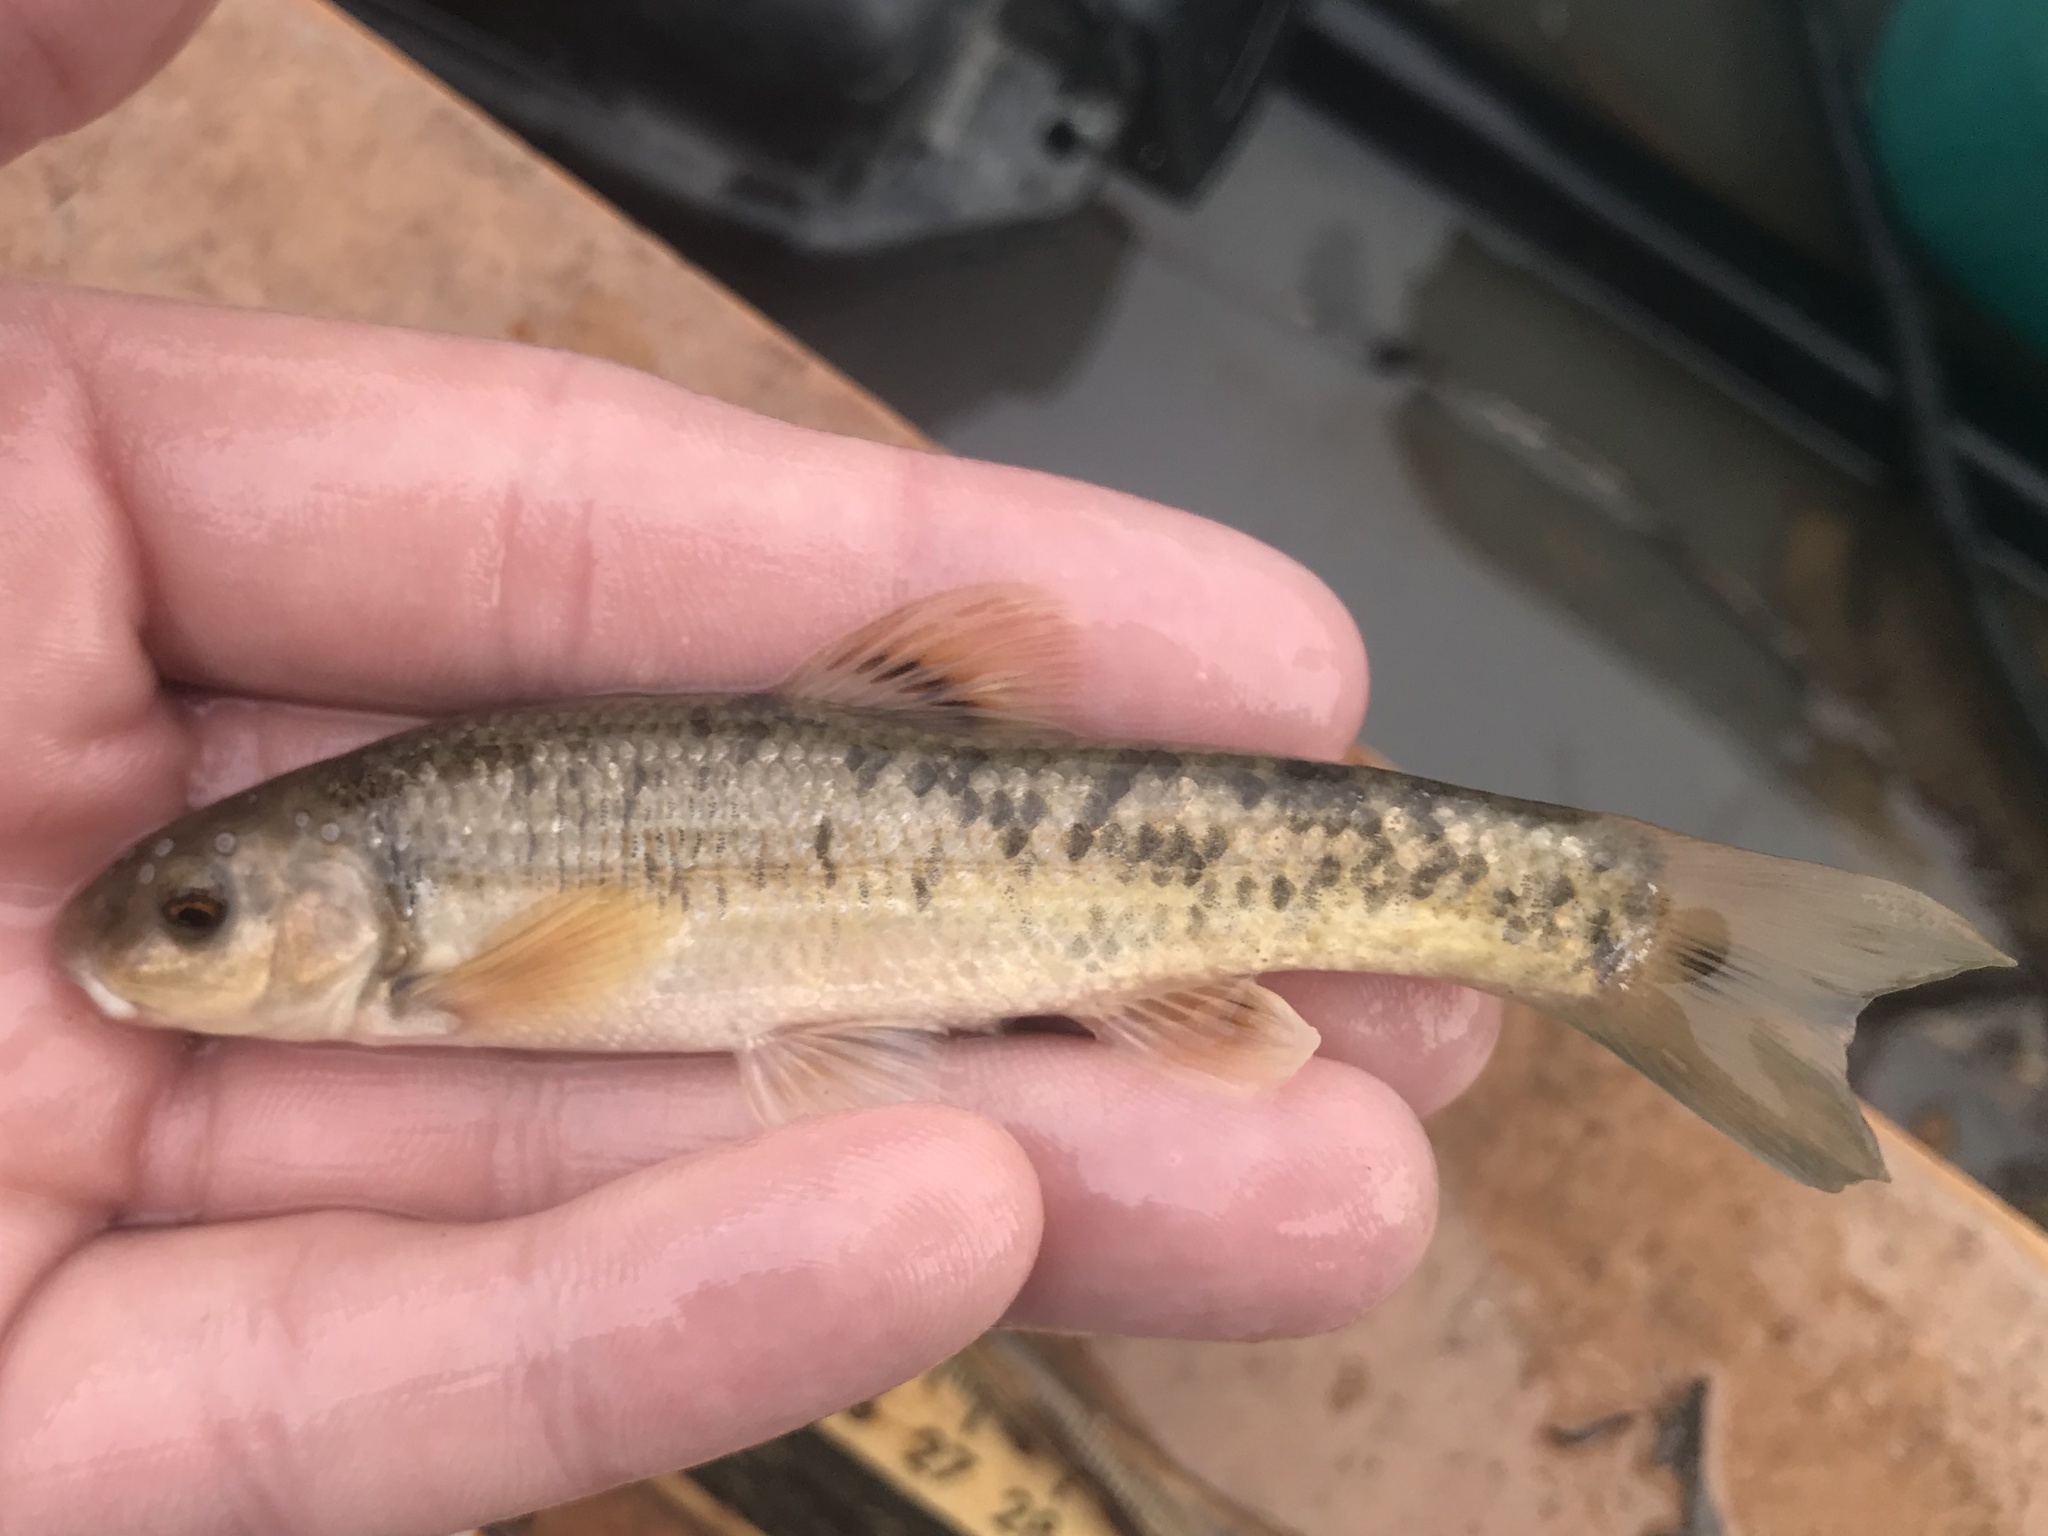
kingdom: Animalia
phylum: Chordata
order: Cypriniformes
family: Cyprinidae
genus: Campostoma
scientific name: Campostoma anomalum
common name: Central stoneroller
